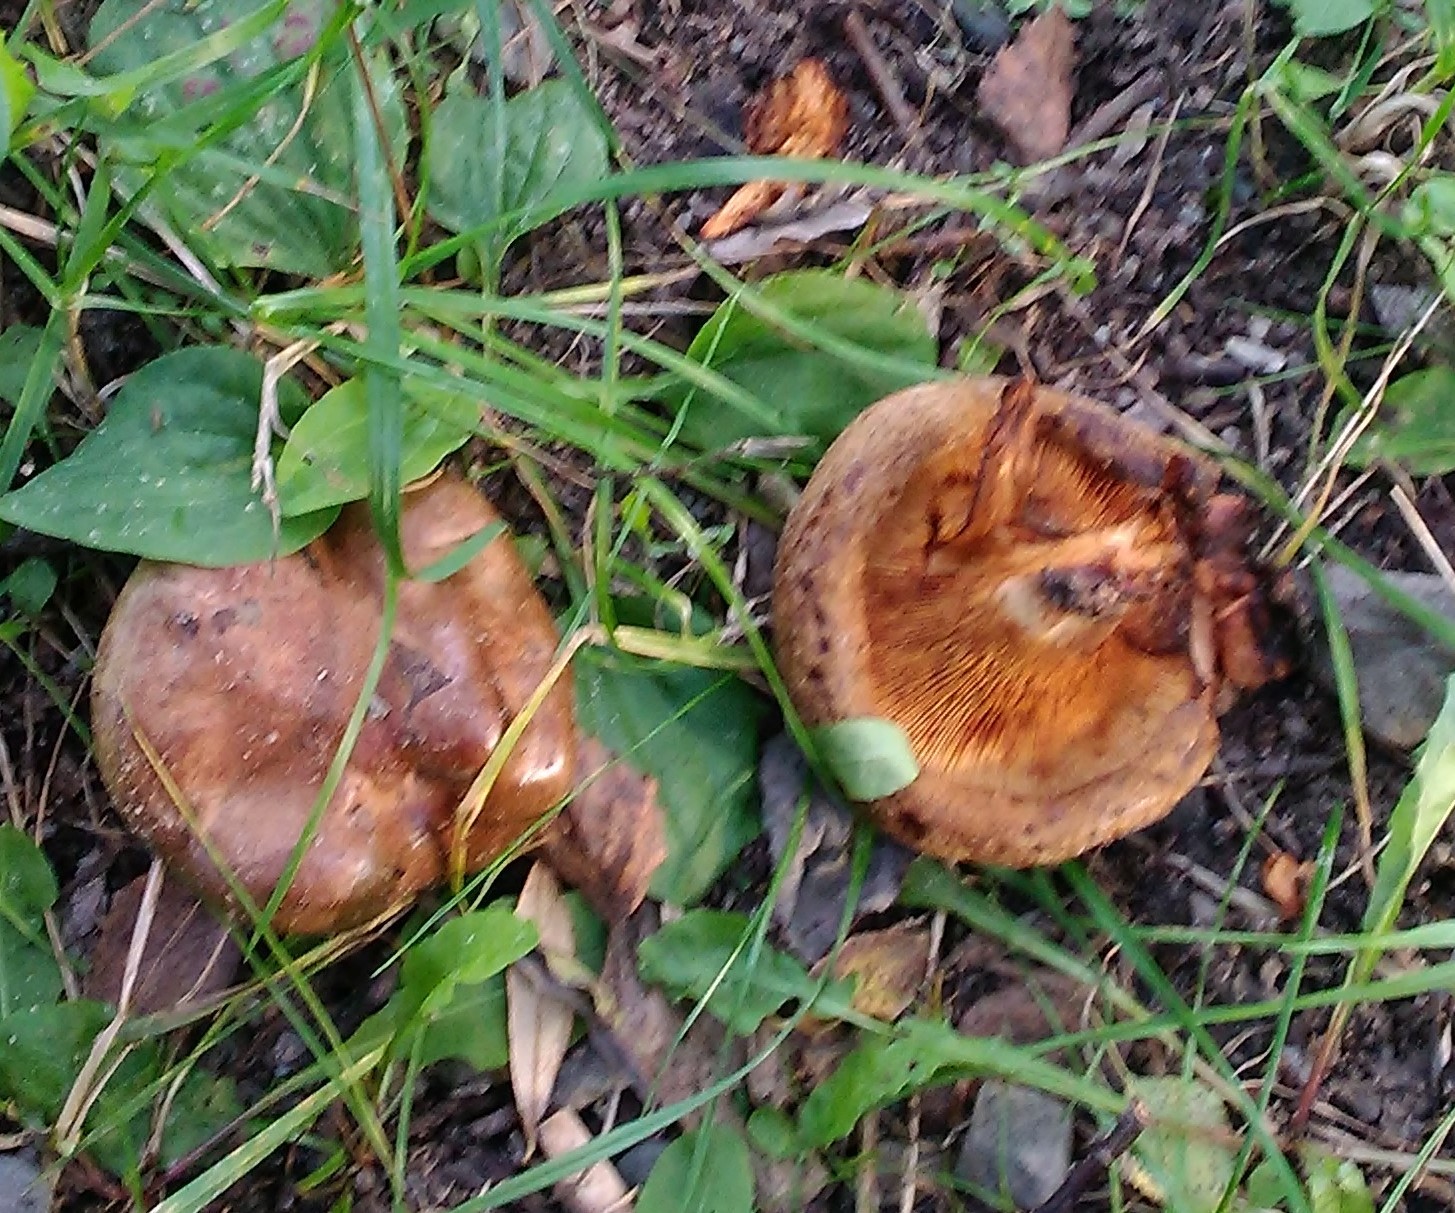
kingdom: Fungi
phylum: Basidiomycota
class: Agaricomycetes
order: Boletales
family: Paxillaceae
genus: Paxillus
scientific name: Paxillus involutus
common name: Brown roll rim
